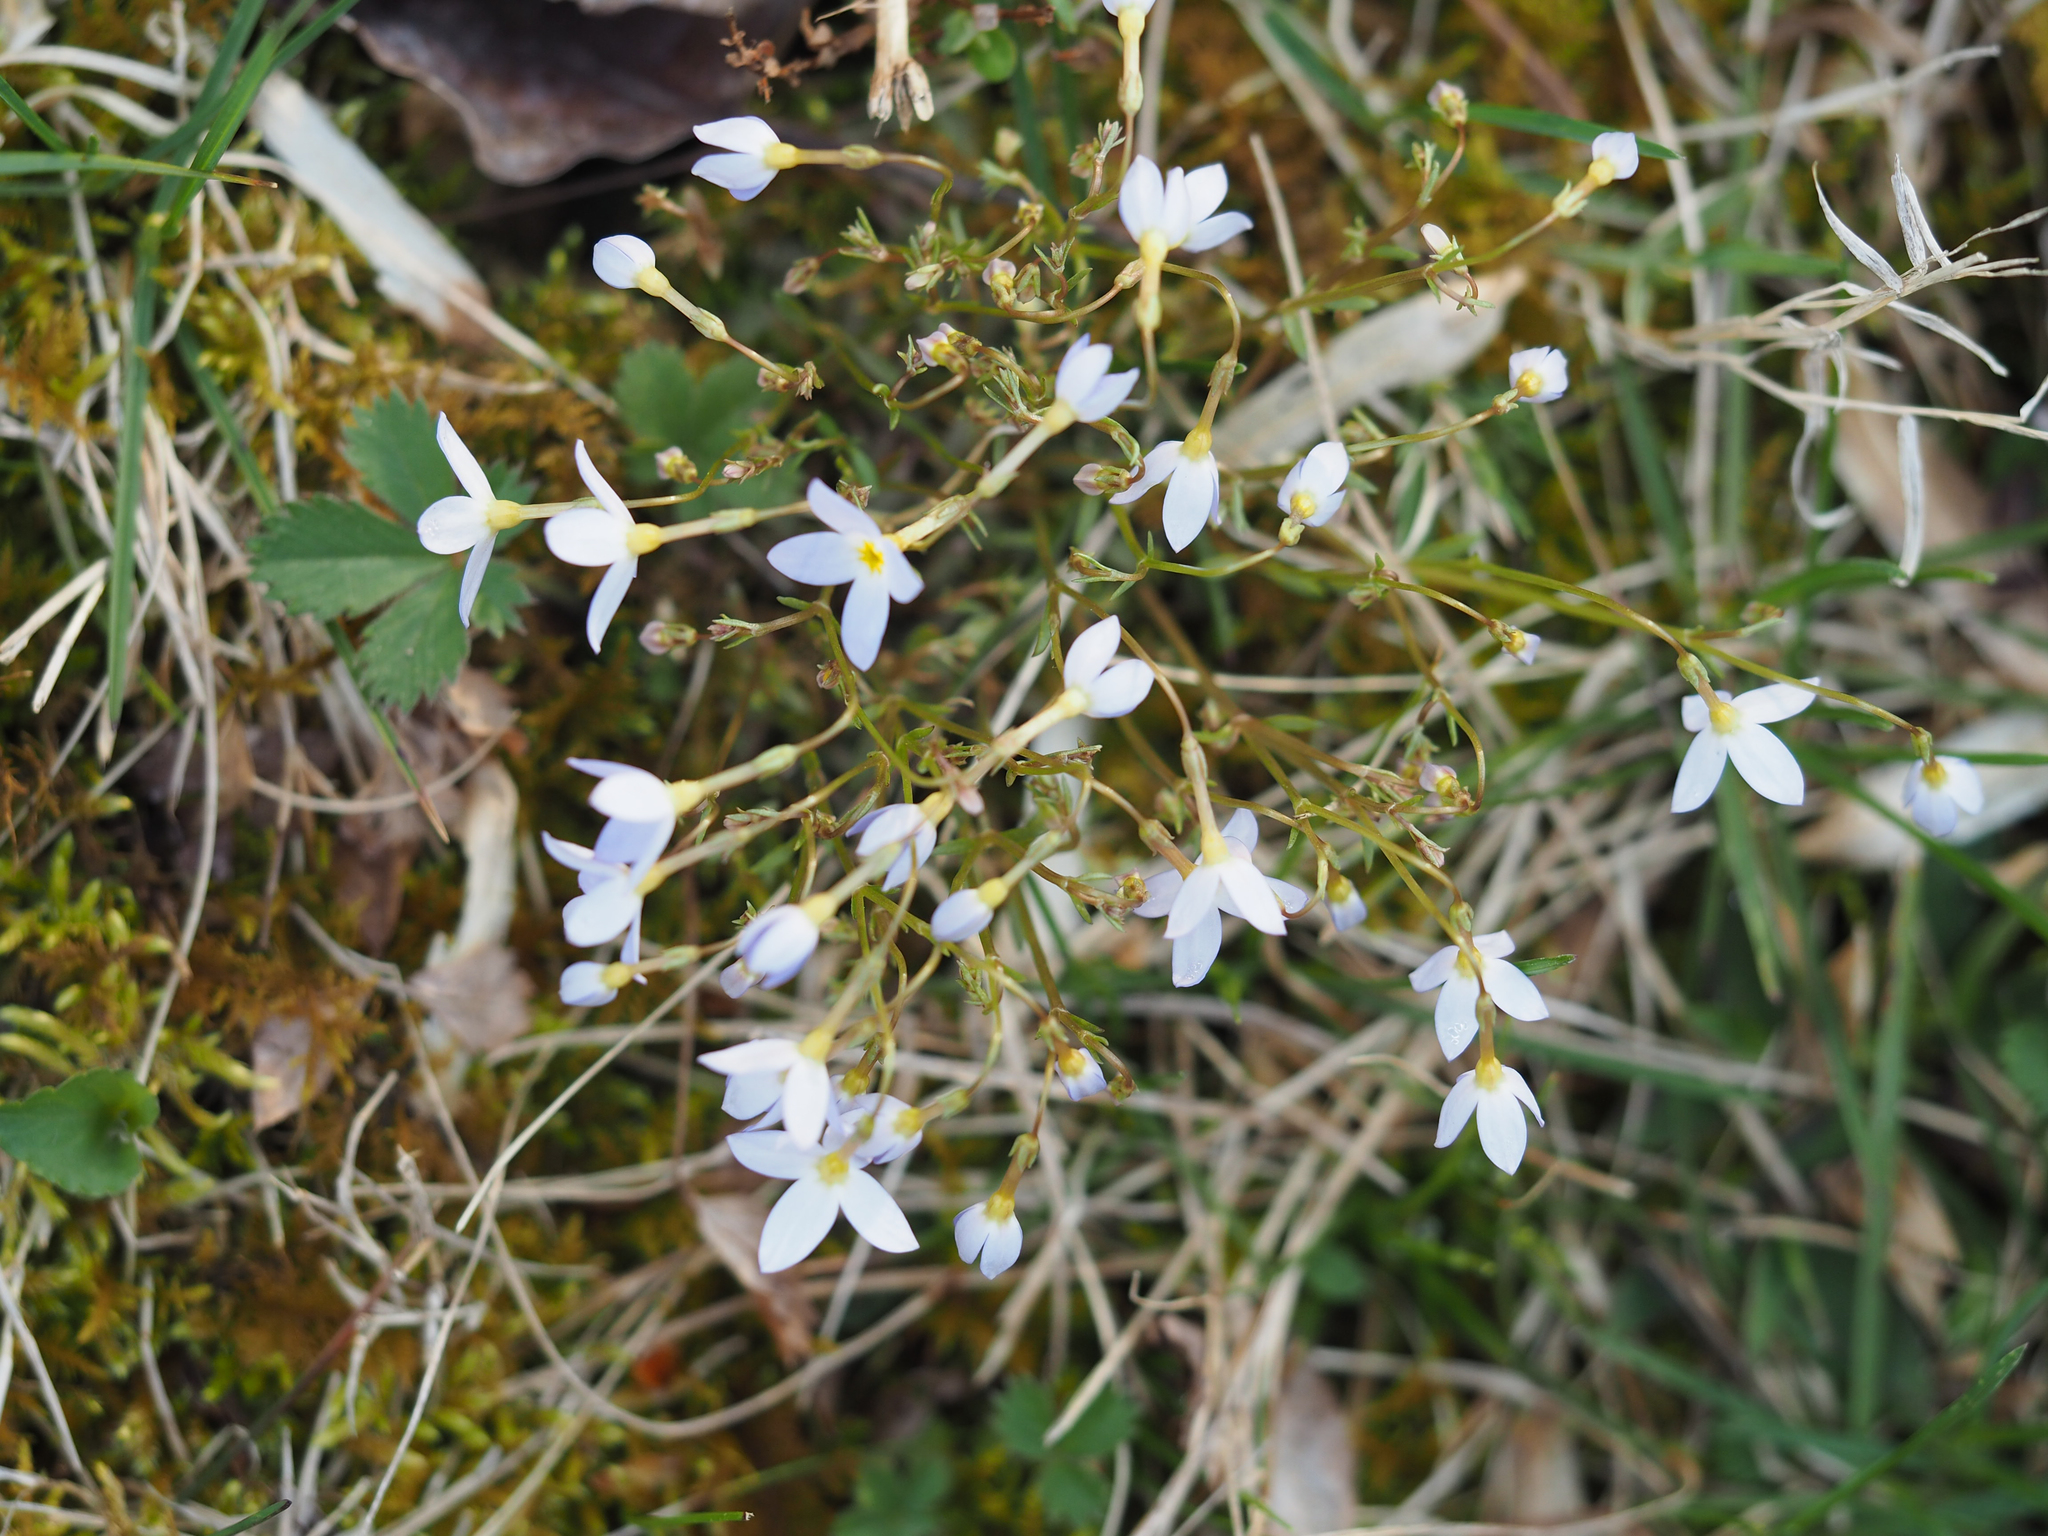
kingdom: Plantae
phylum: Tracheophyta
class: Magnoliopsida
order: Gentianales
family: Rubiaceae
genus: Houstonia
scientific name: Houstonia caerulea
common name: Bluets
